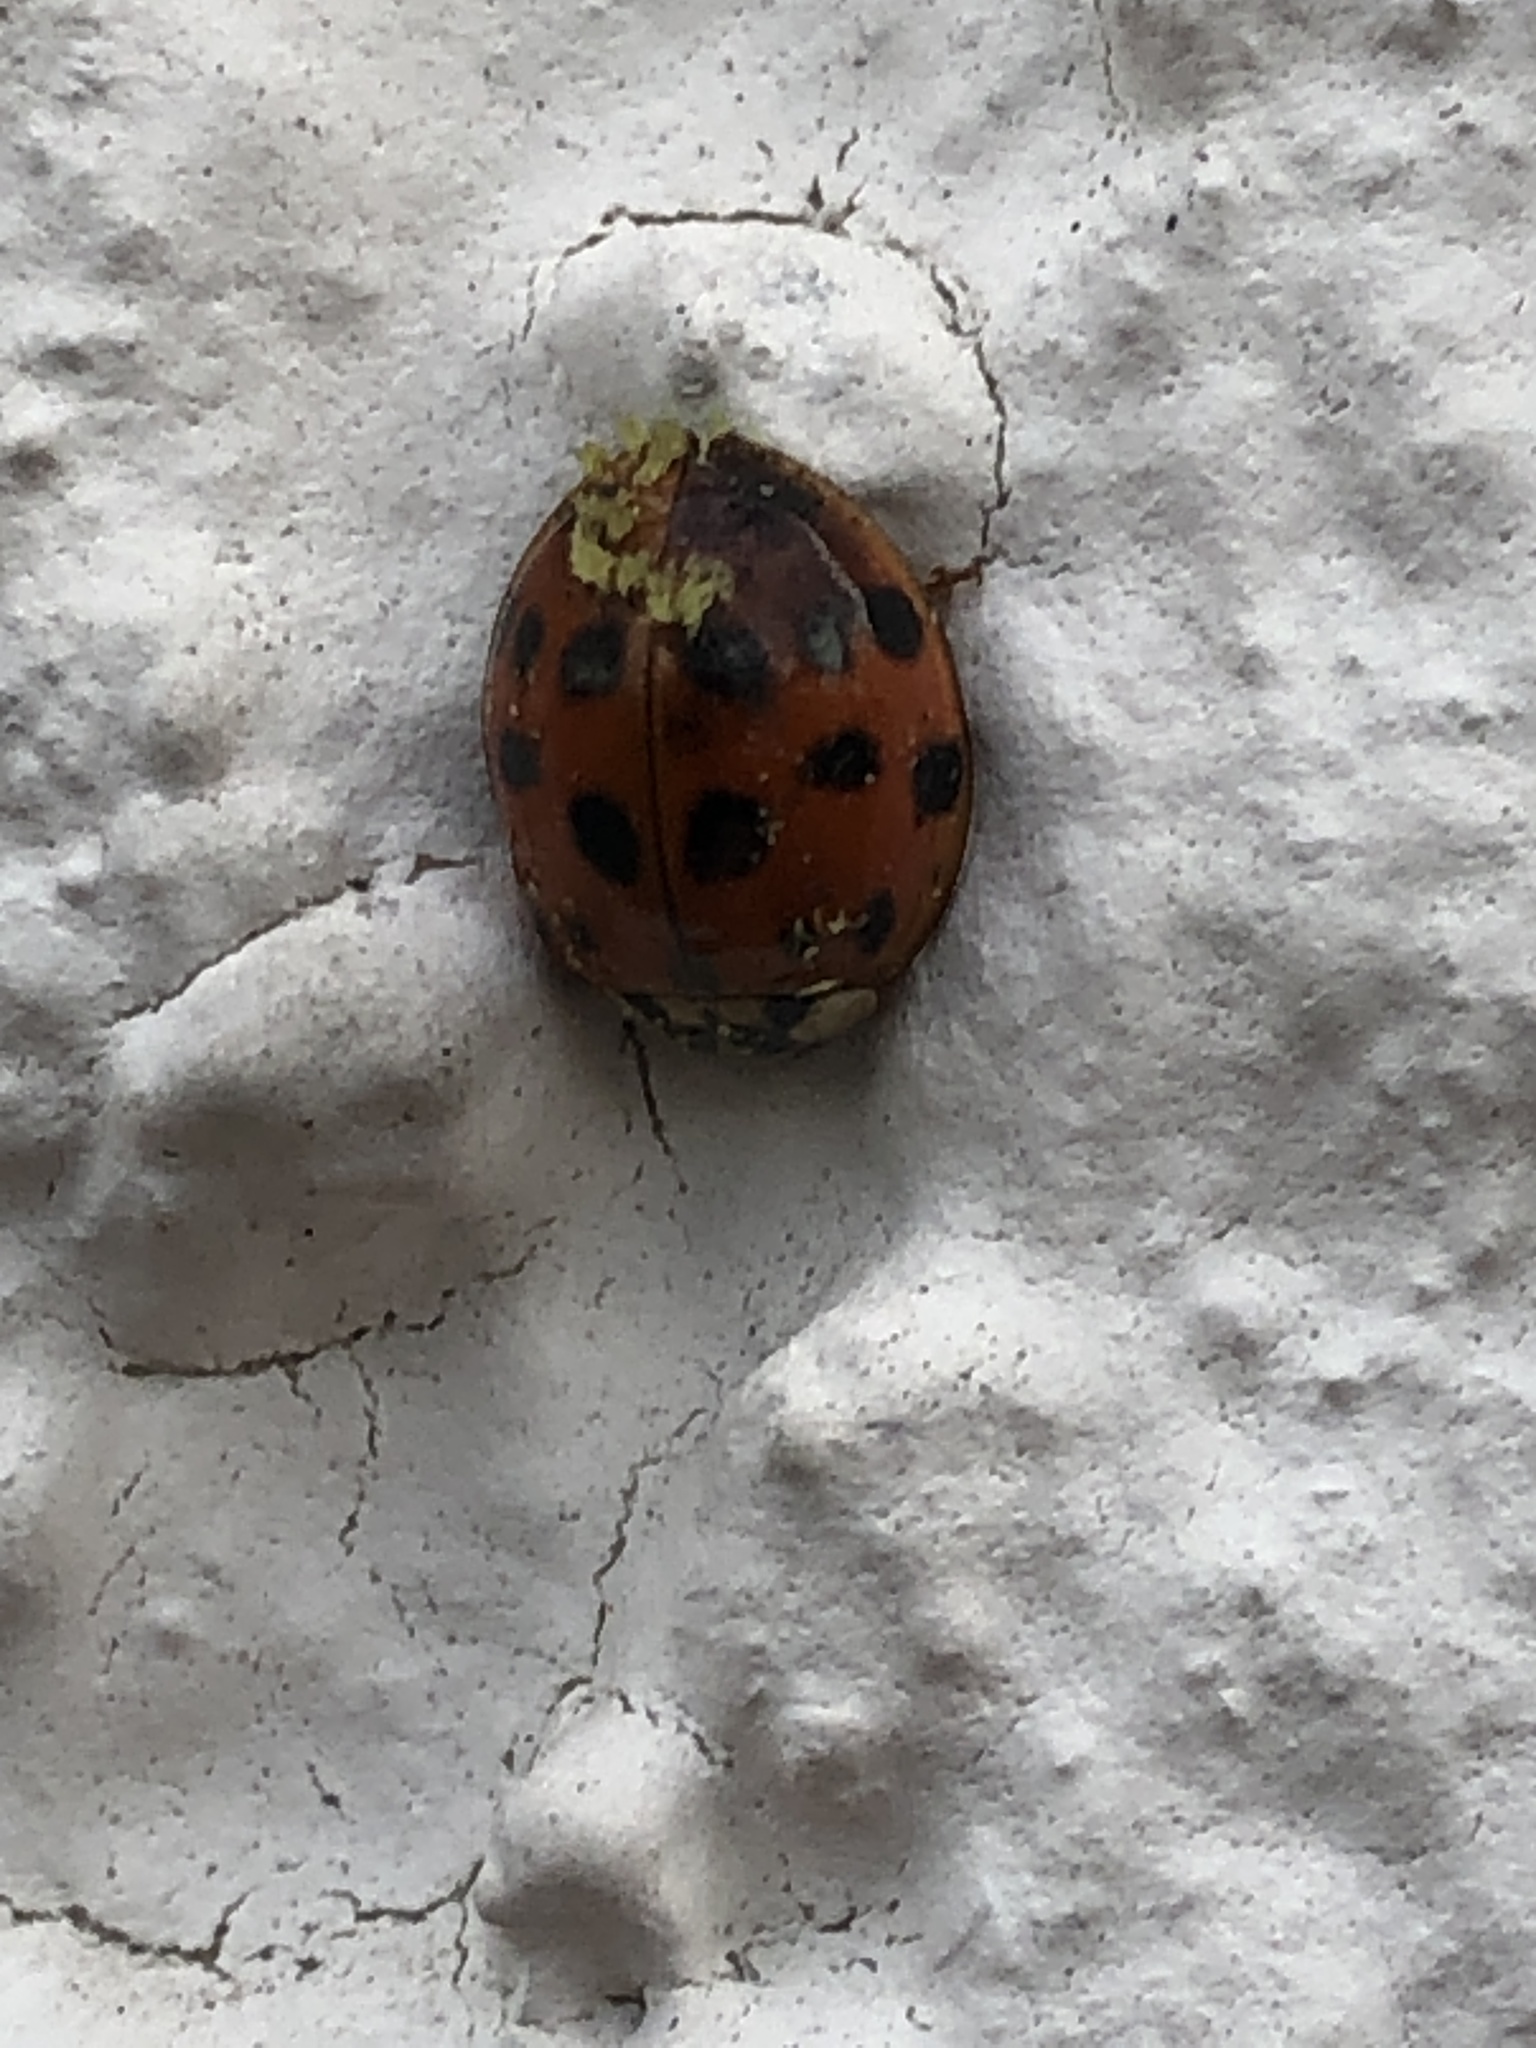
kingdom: Animalia
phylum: Arthropoda
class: Insecta
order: Coleoptera
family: Coccinellidae
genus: Harmonia
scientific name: Harmonia axyridis
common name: Harlequin ladybird
